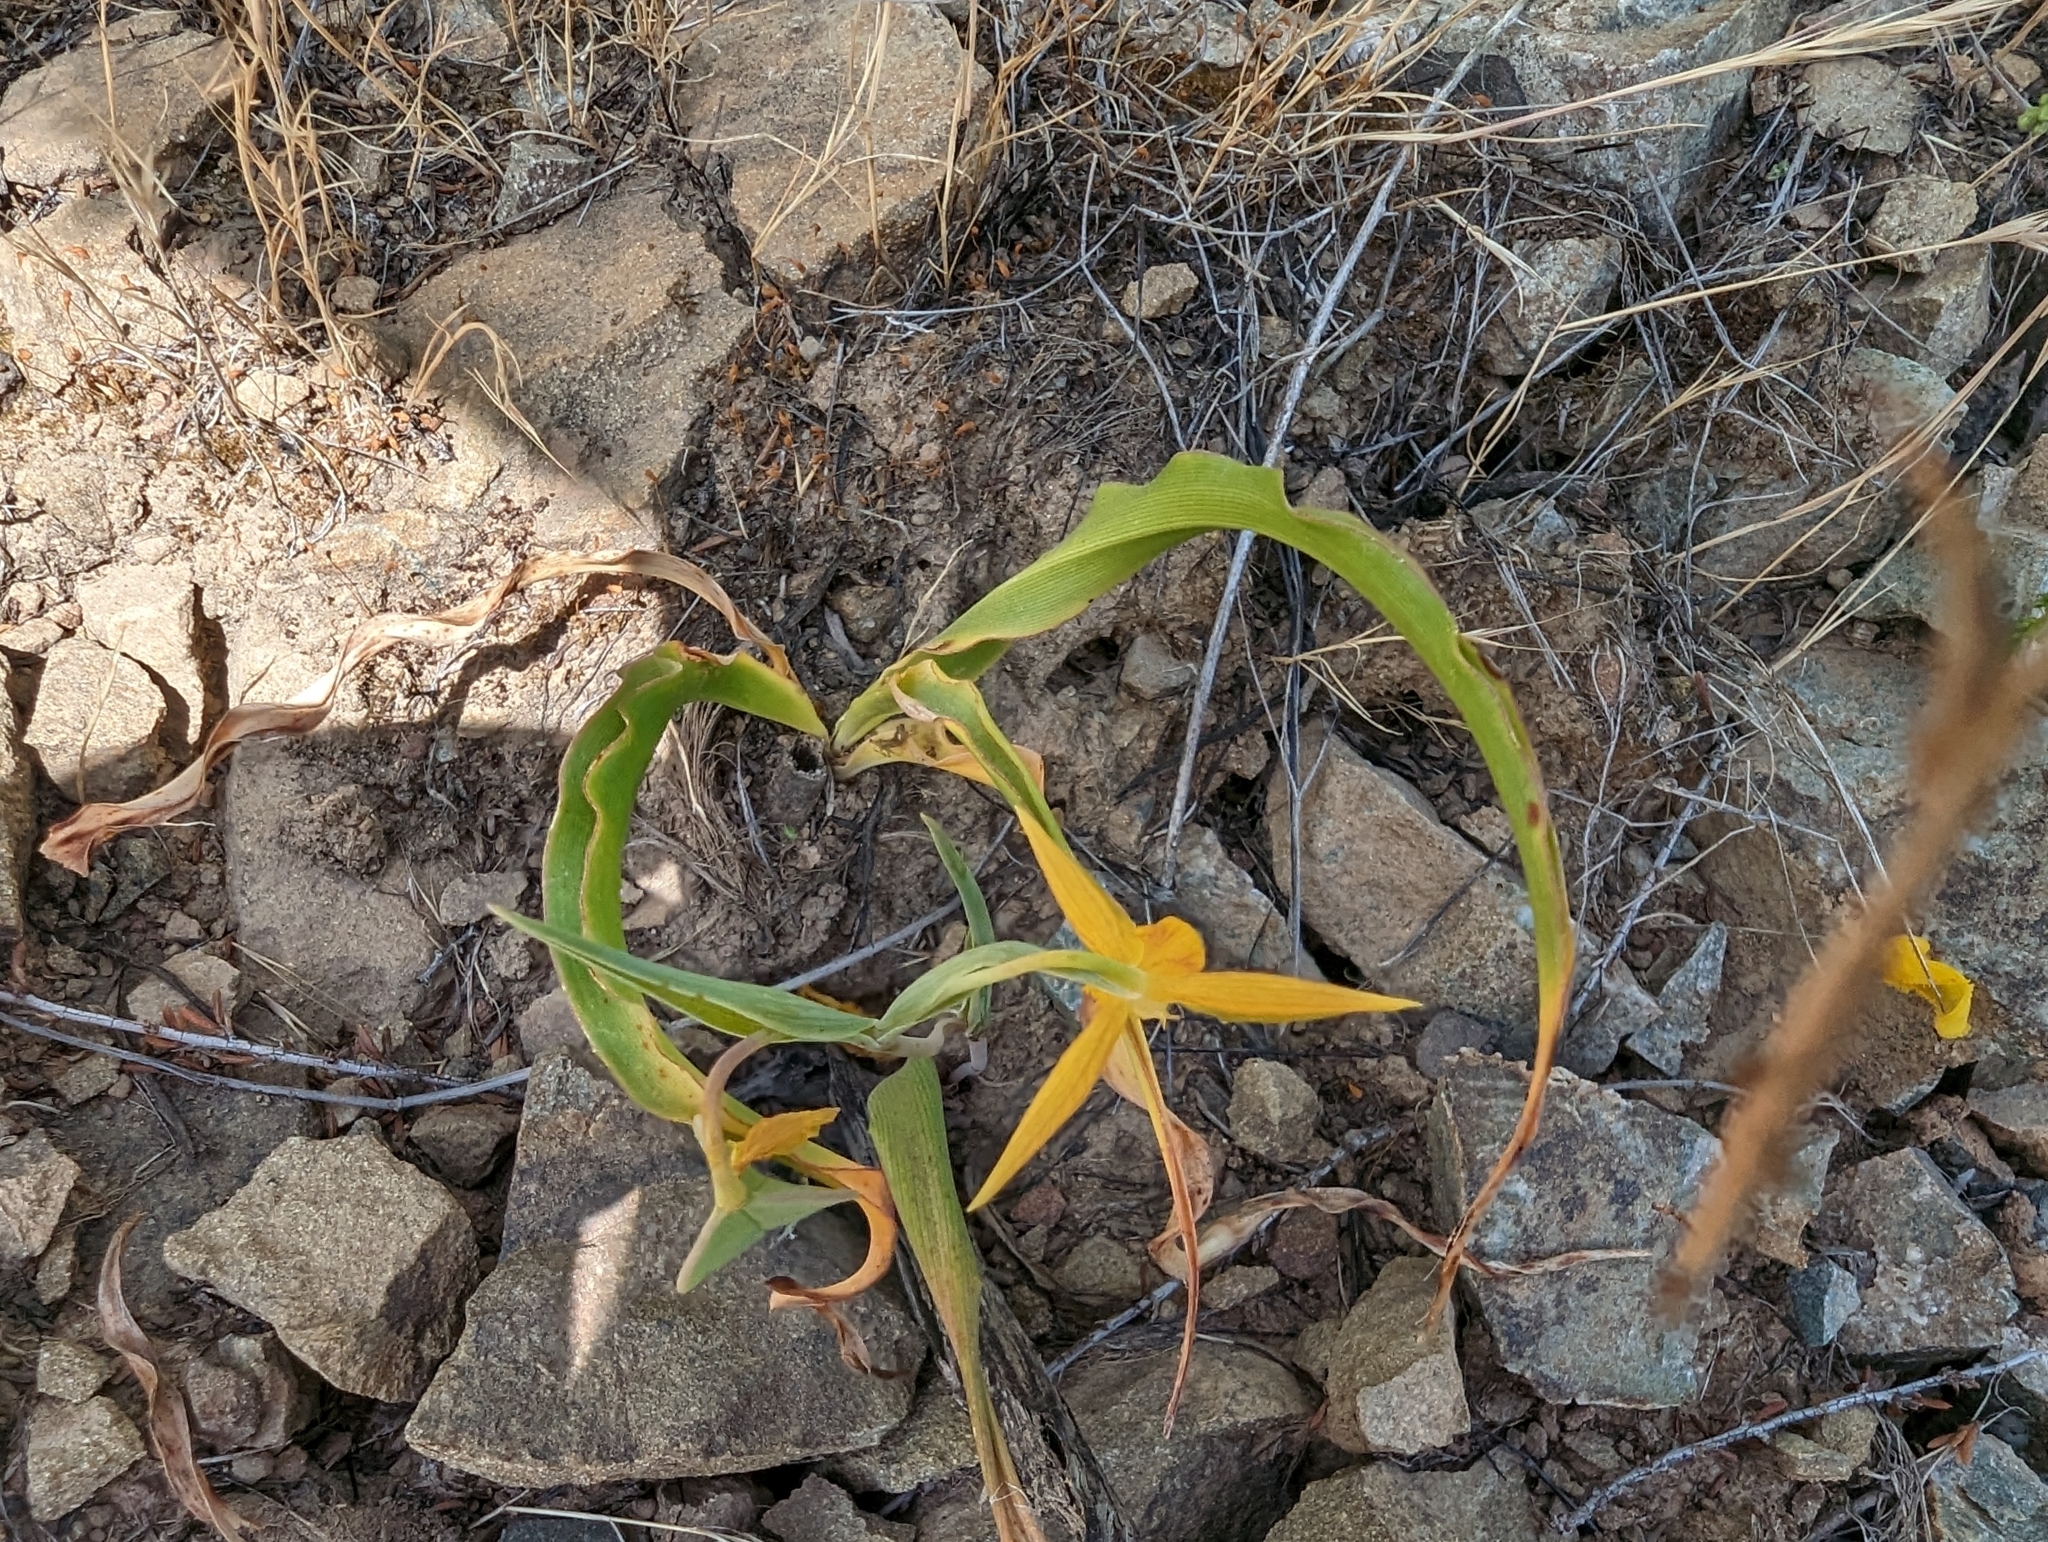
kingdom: Plantae
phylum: Tracheophyta
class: Liliopsida
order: Liliales
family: Liliaceae
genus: Calochortus
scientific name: Calochortus amabilis
